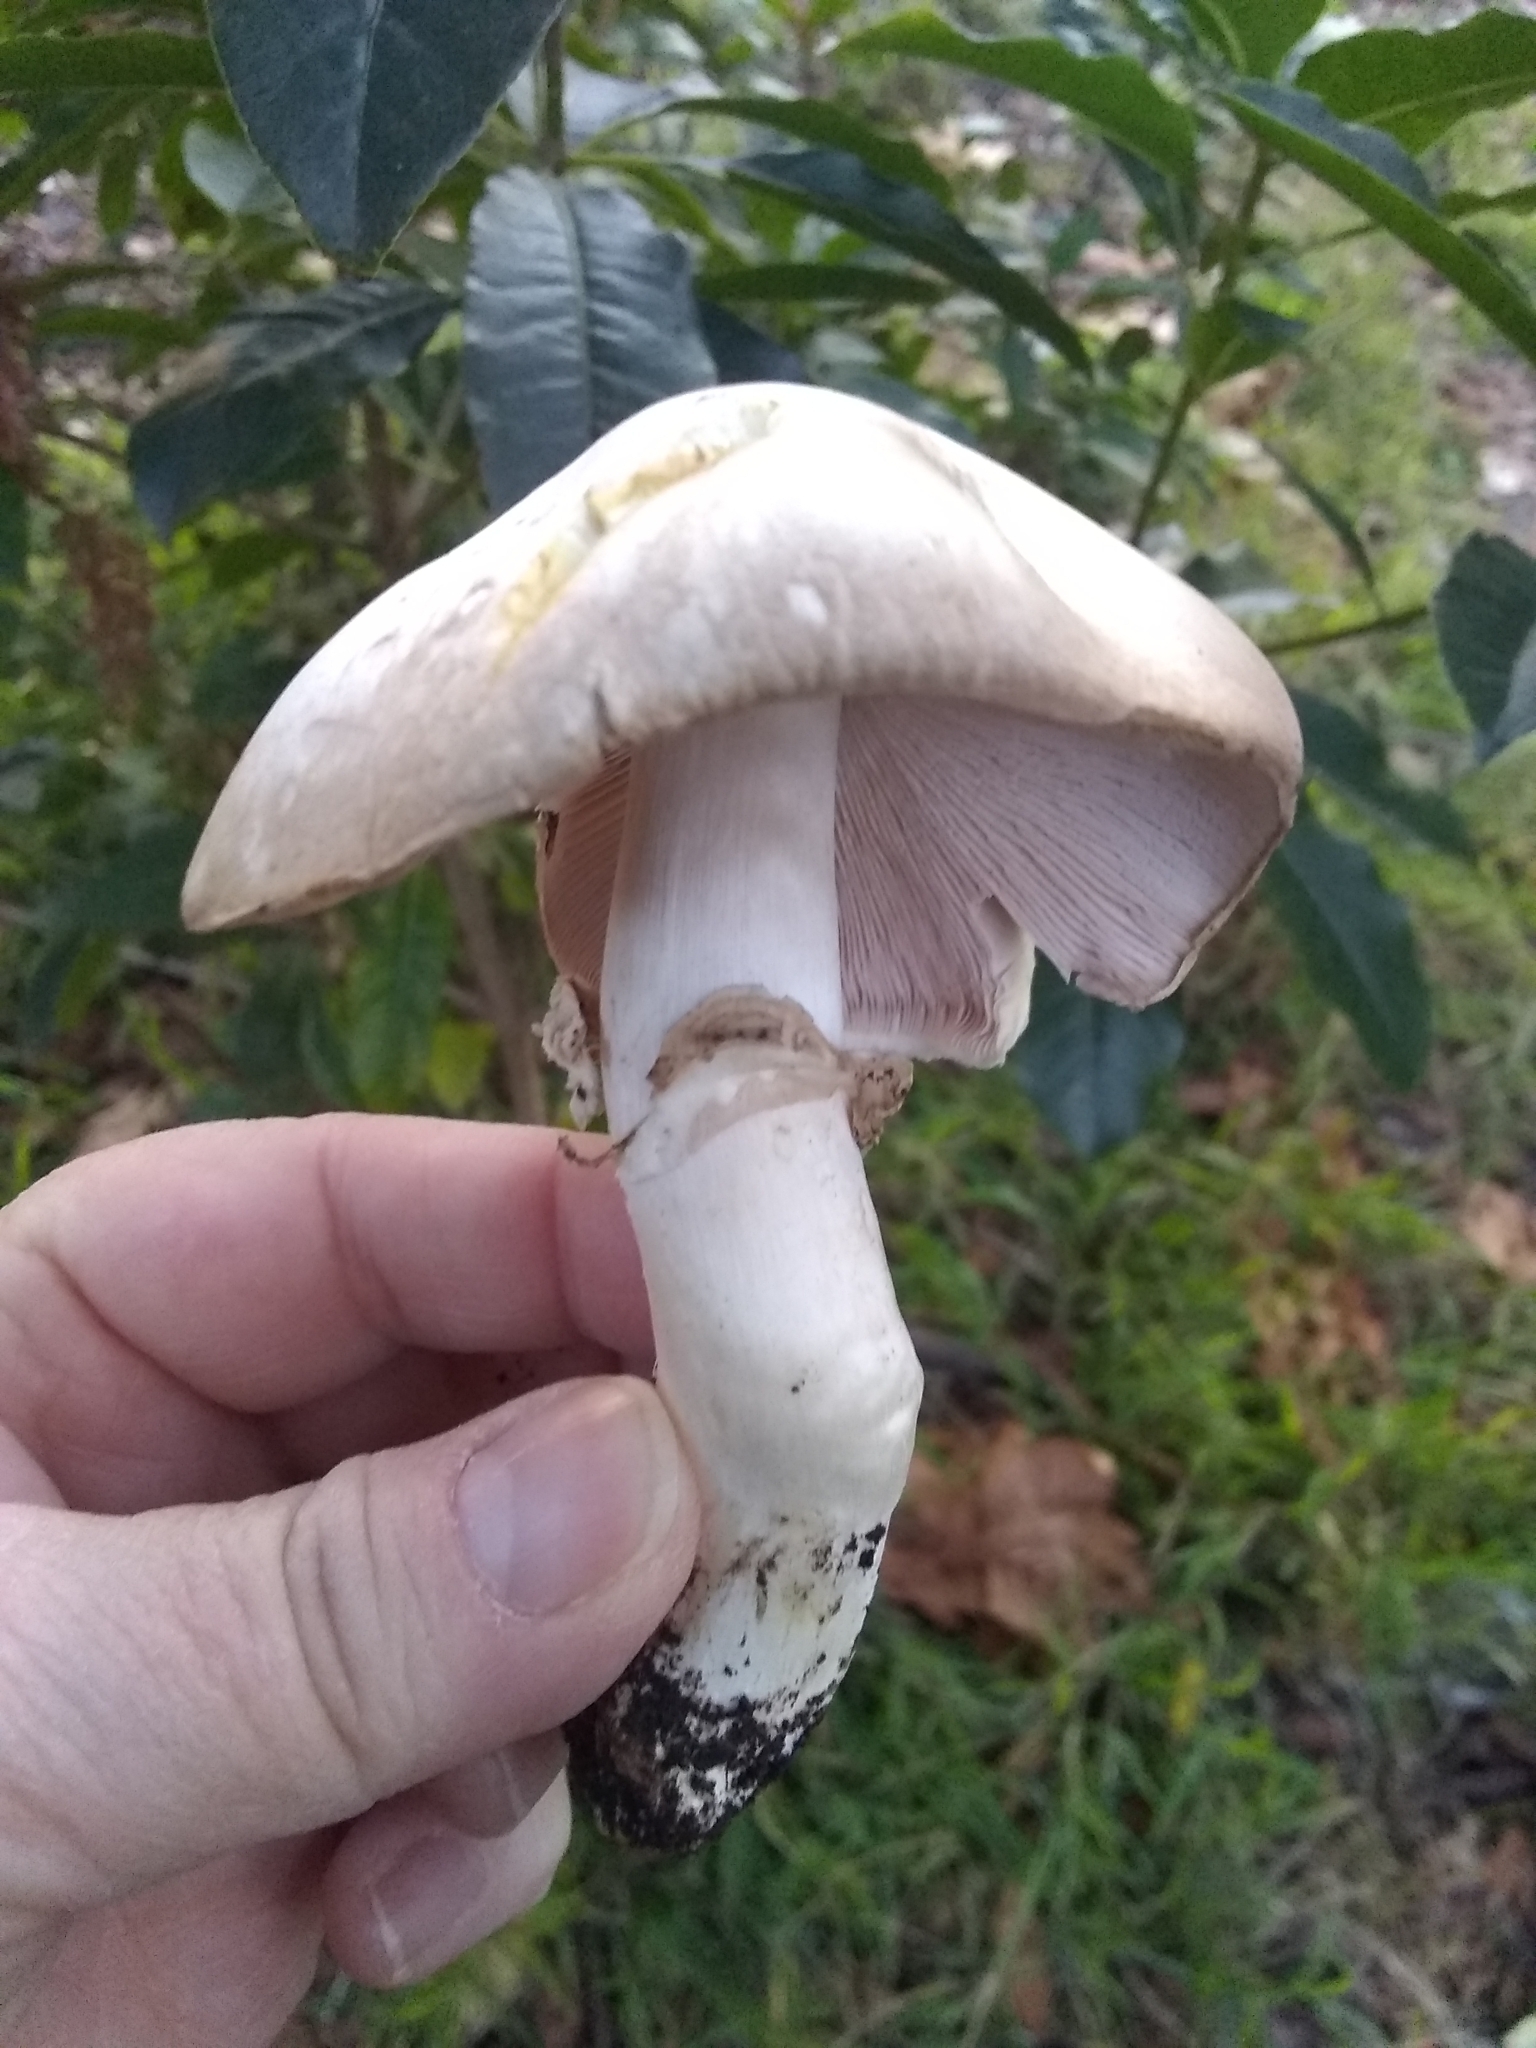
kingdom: Fungi
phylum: Basidiomycota
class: Agaricomycetes
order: Agaricales
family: Agaricaceae
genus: Agaricus
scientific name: Agaricus xanthodermus
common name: Yellow stainer
